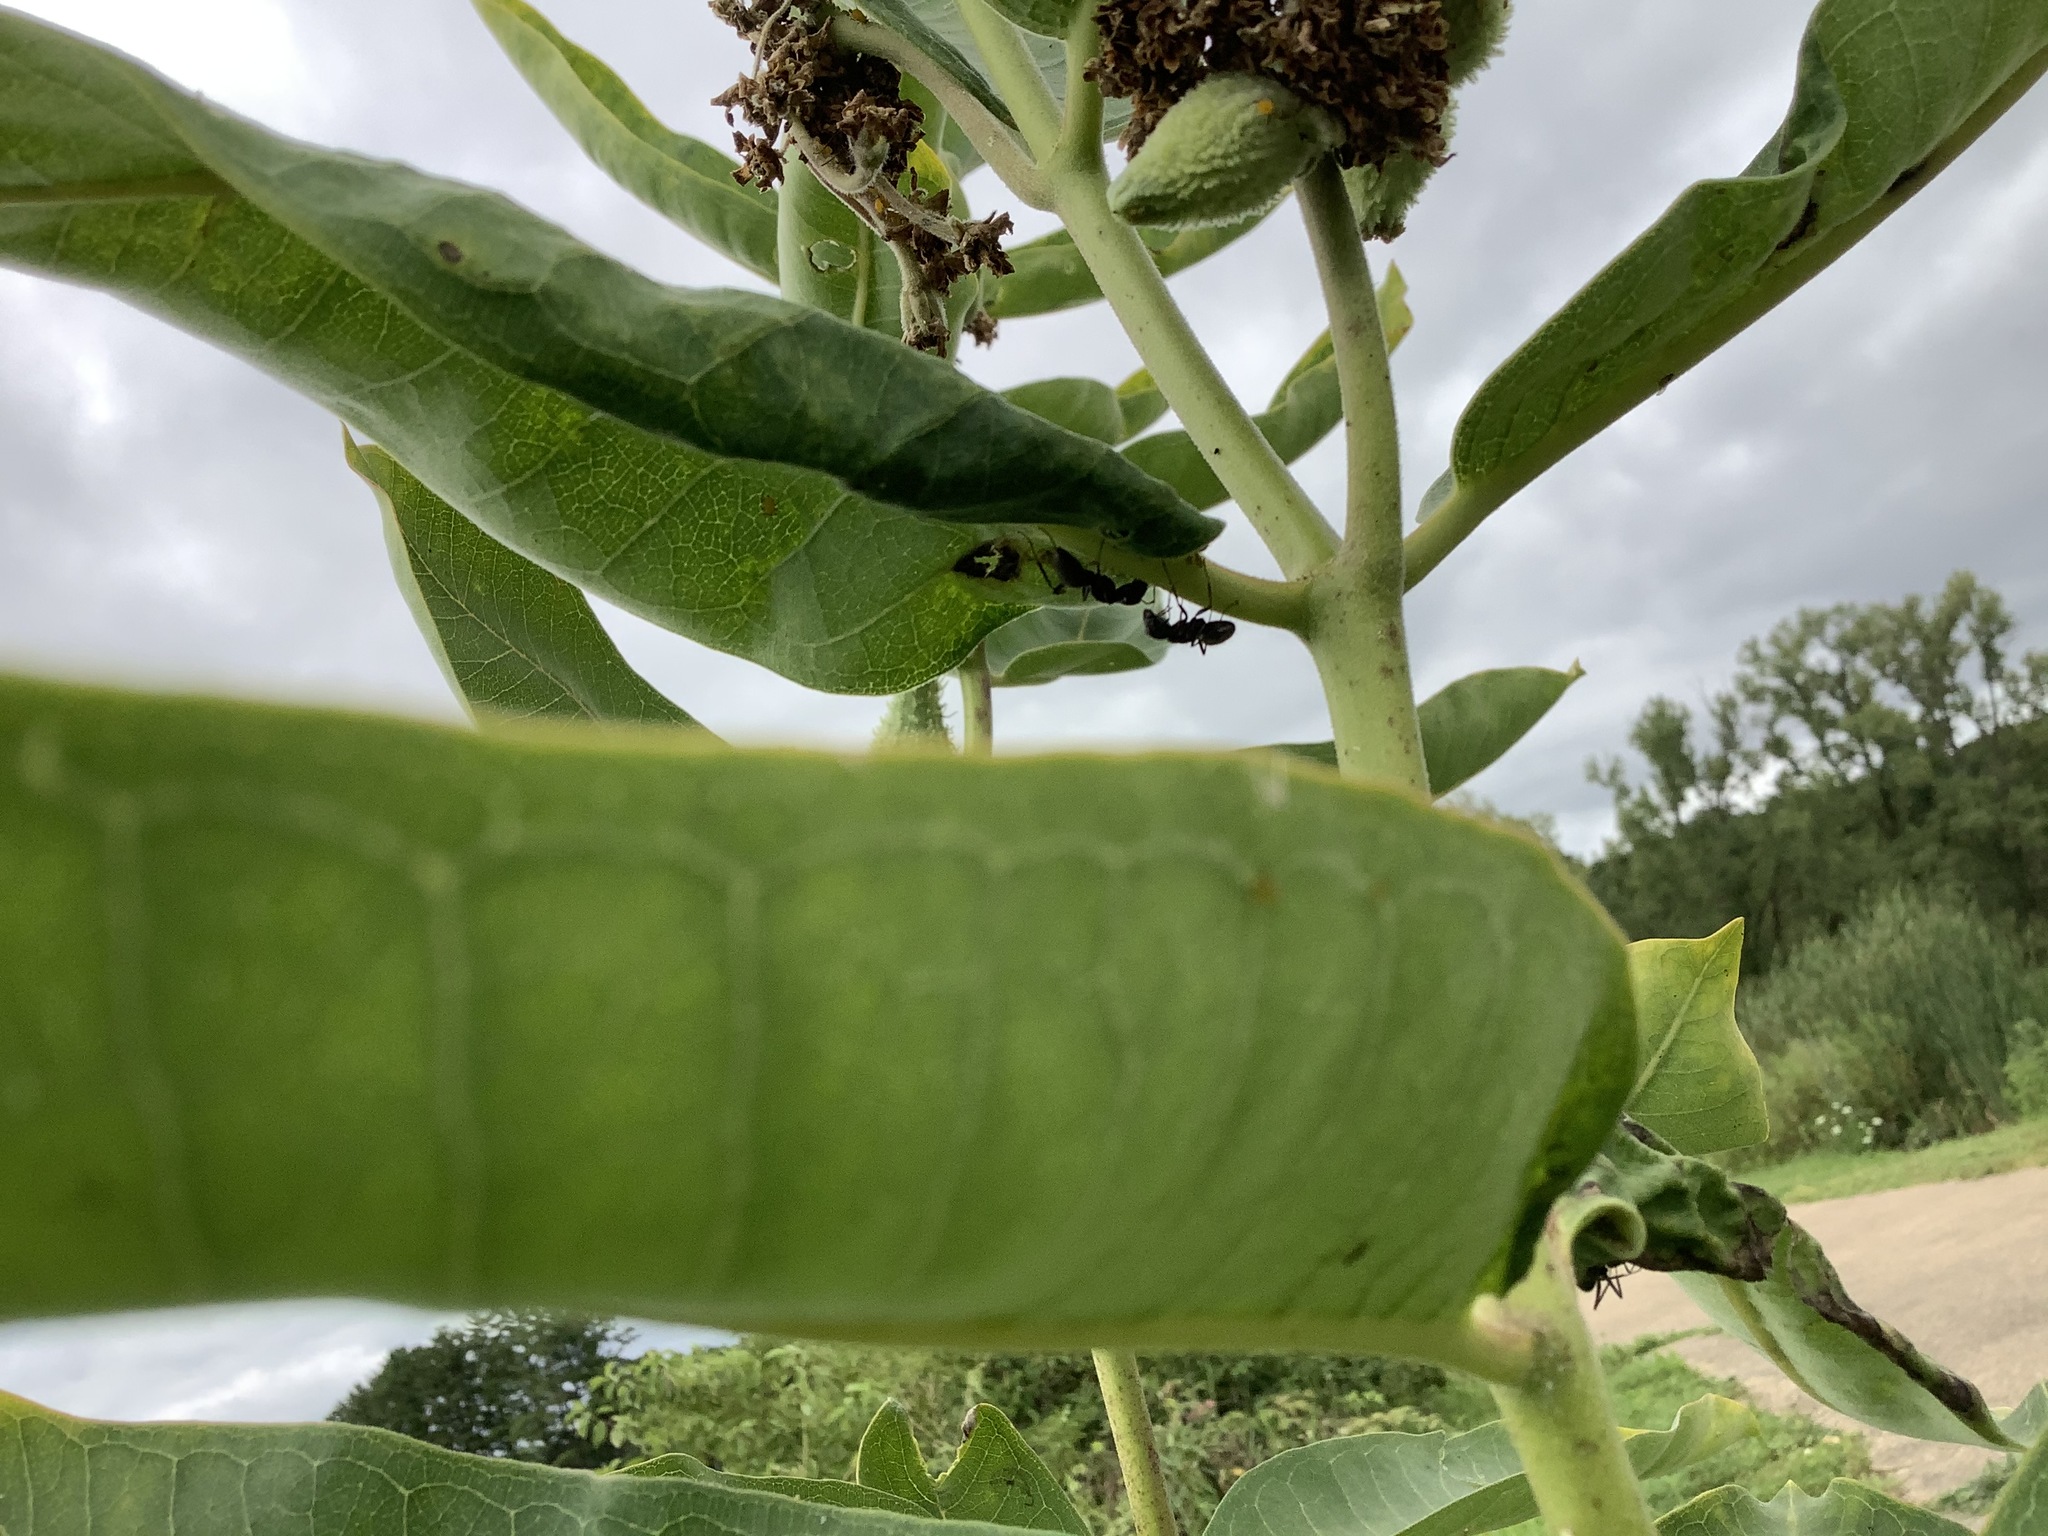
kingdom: Animalia
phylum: Arthropoda
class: Insecta
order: Hymenoptera
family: Formicidae
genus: Camponotus
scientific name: Camponotus pennsylvanicus
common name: Black carpenter ant
